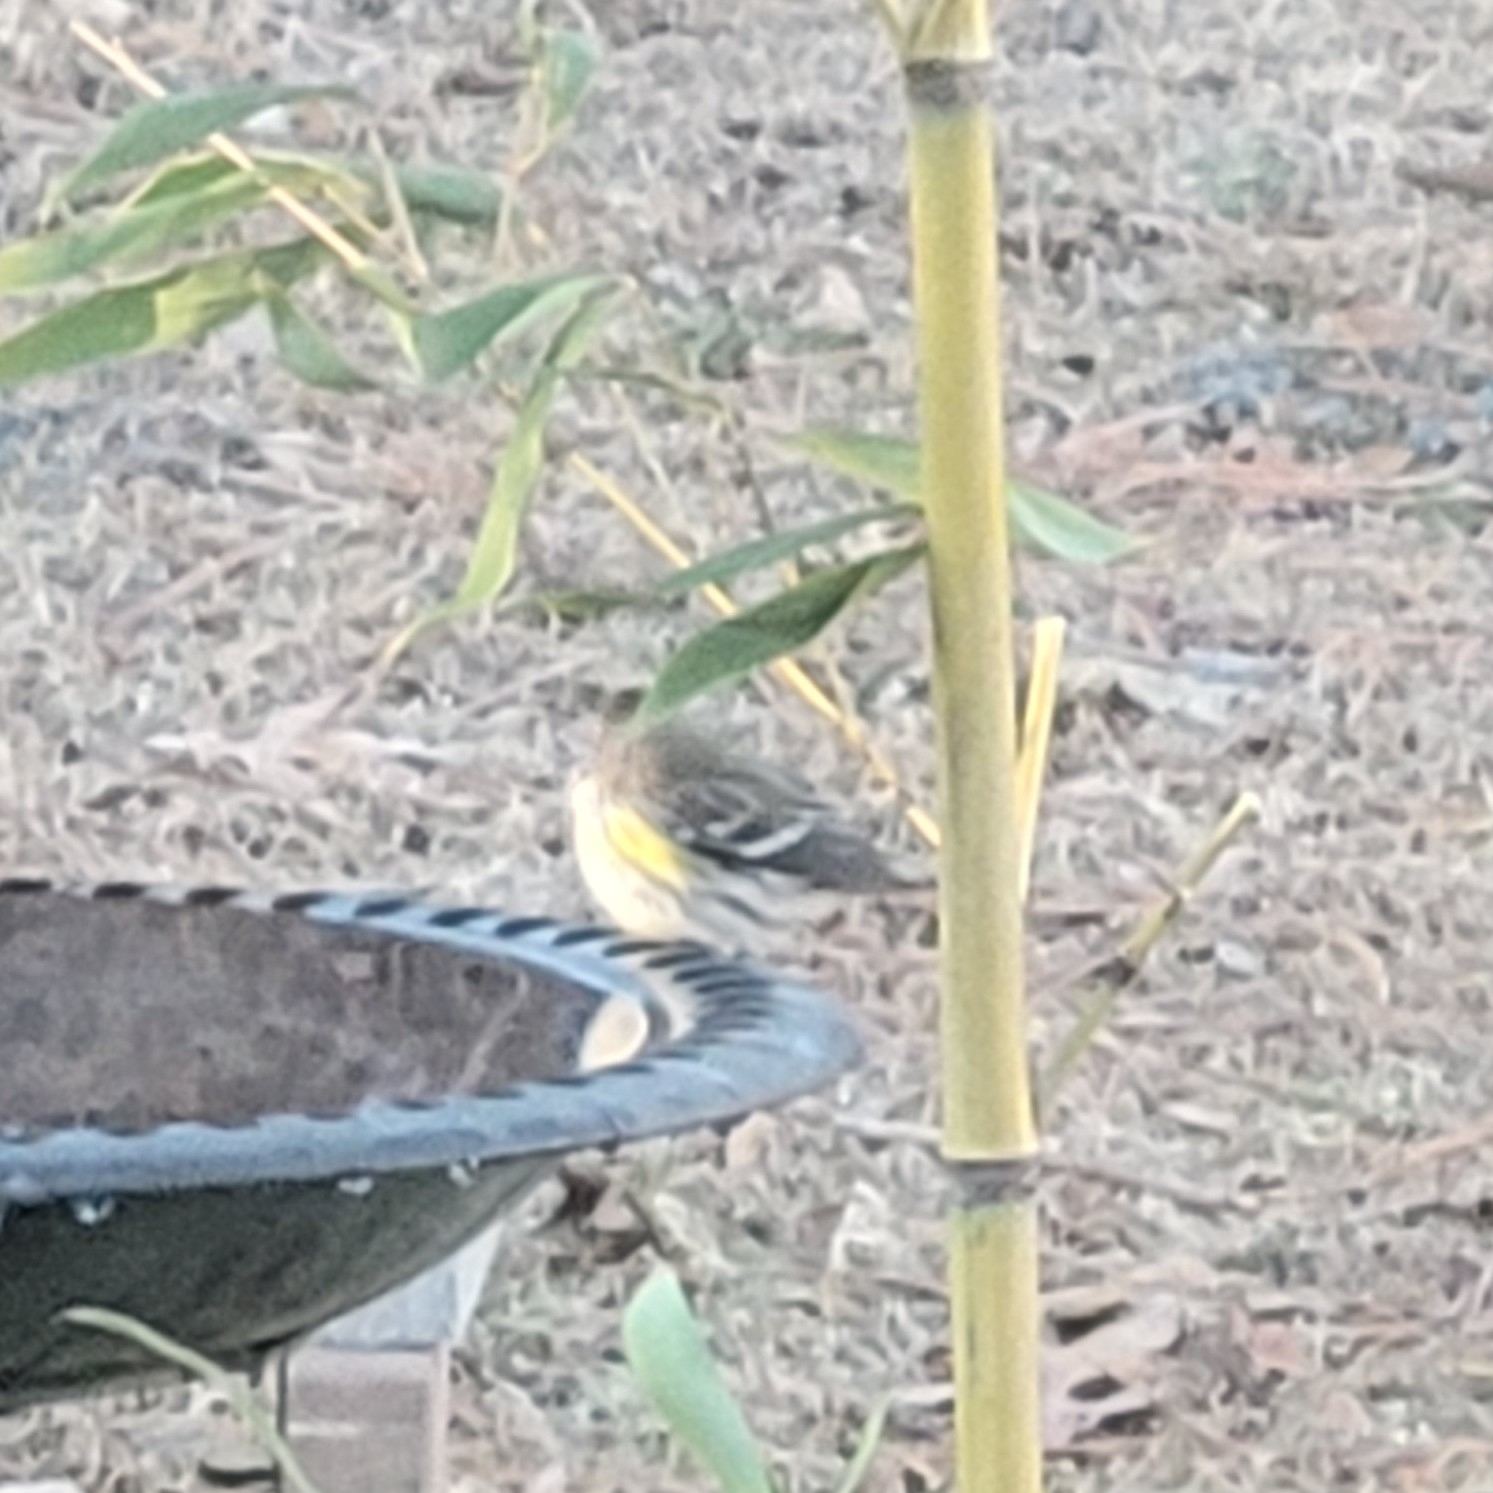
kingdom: Animalia
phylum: Chordata
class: Aves
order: Passeriformes
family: Parulidae
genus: Setophaga
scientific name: Setophaga coronata
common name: Myrtle warbler
